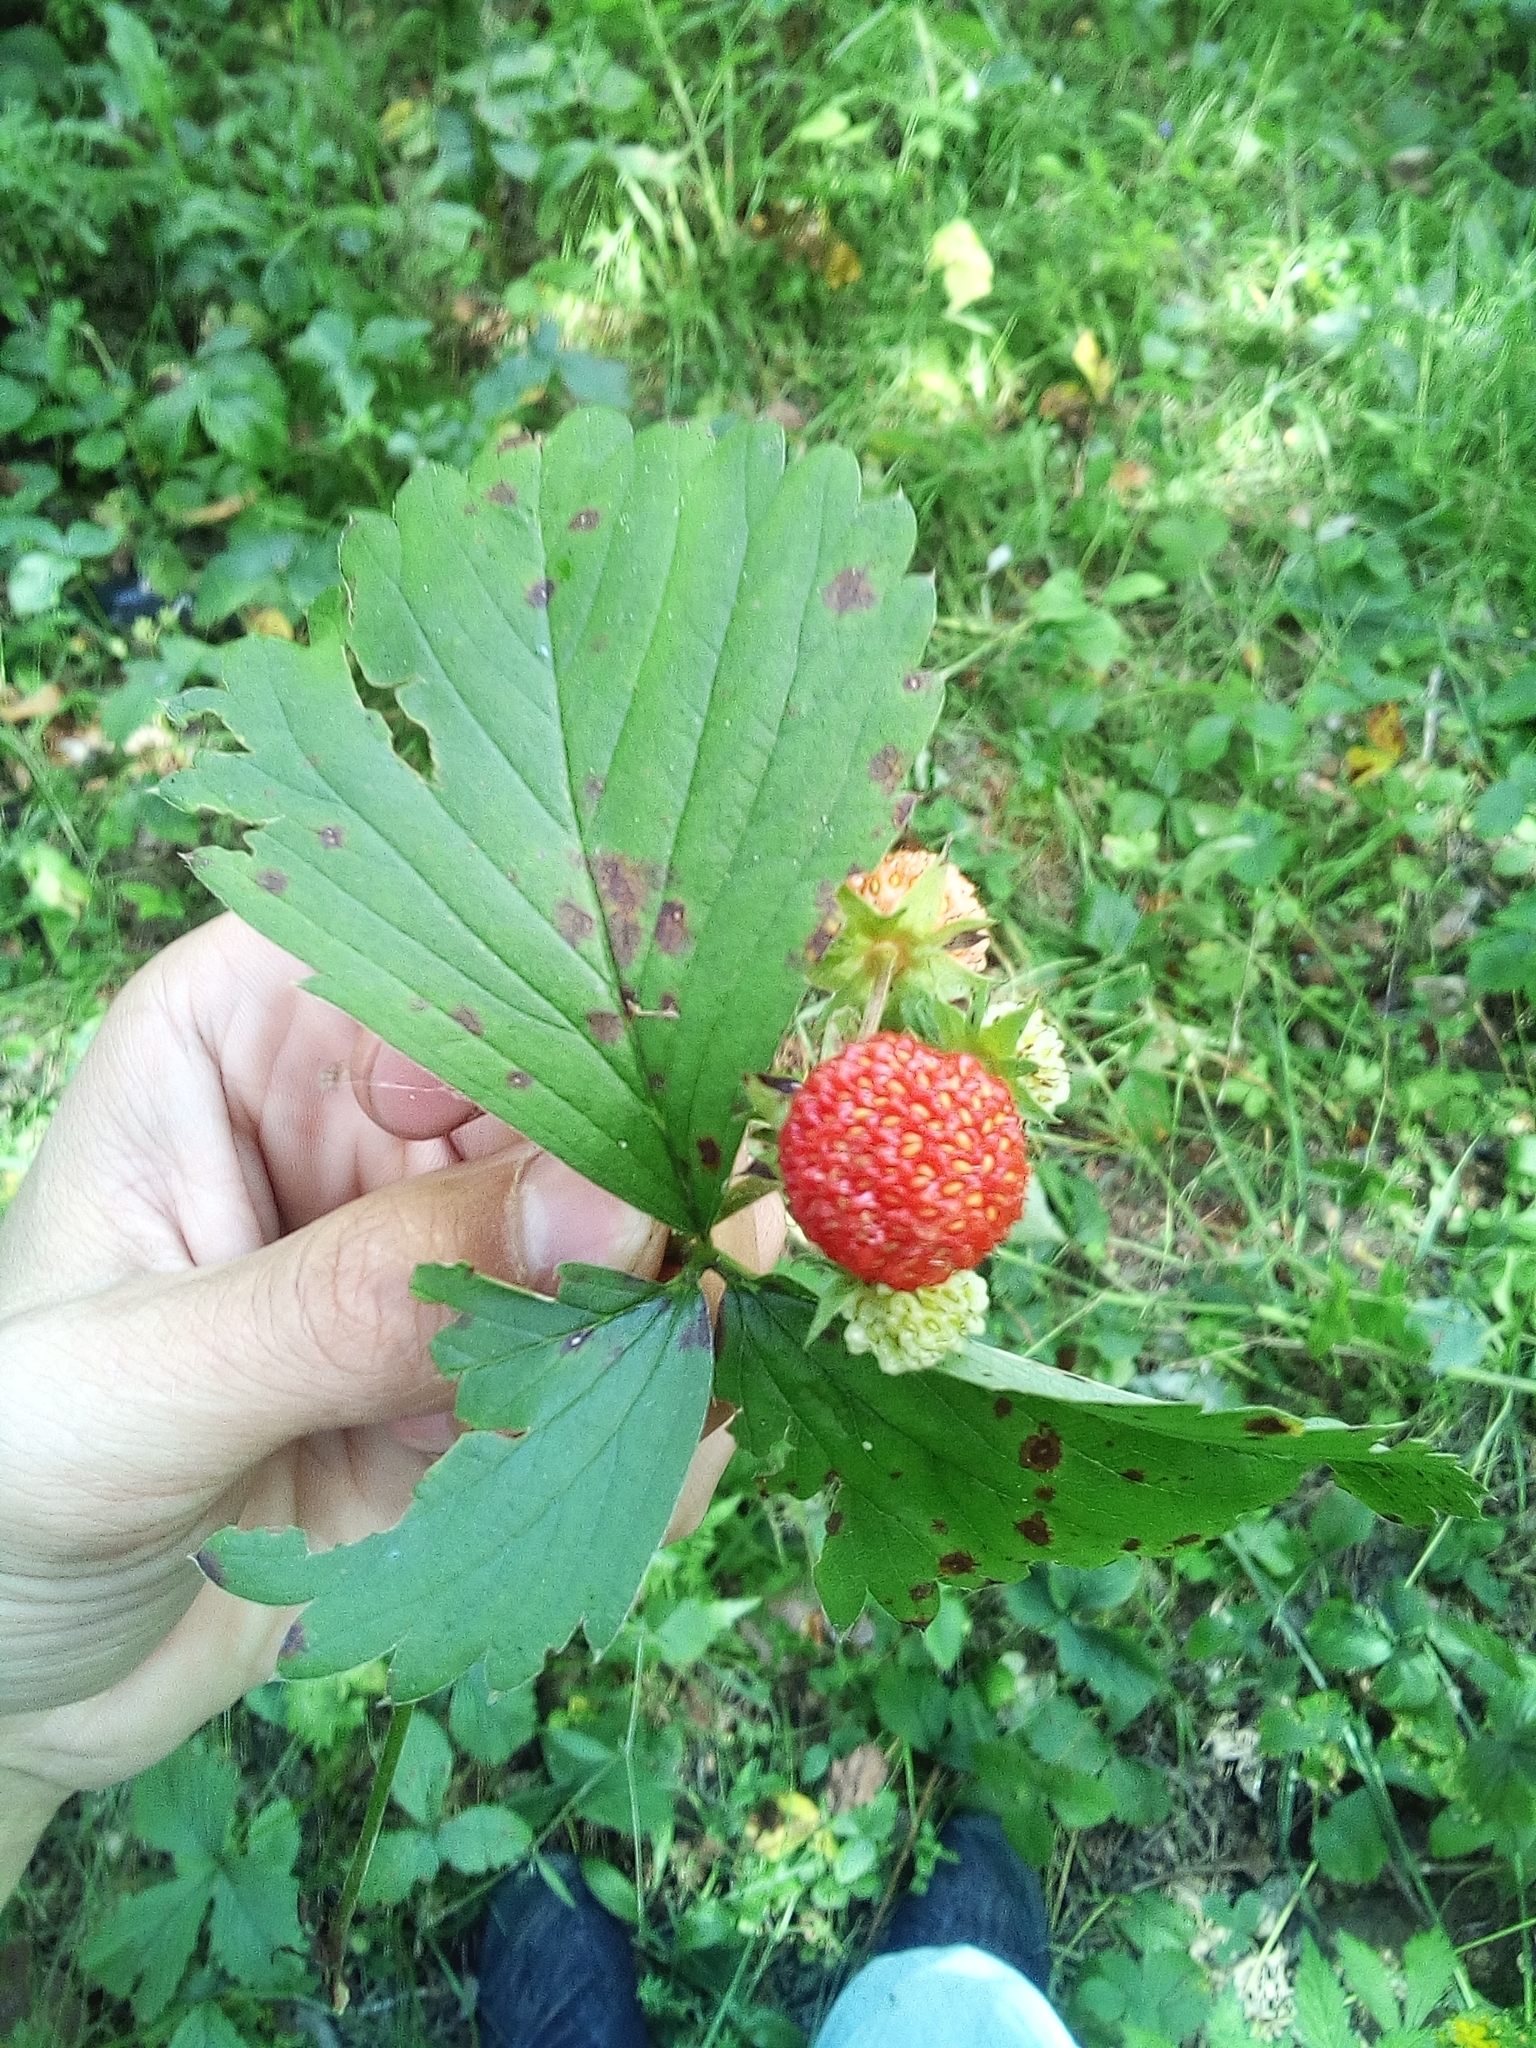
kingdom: Plantae
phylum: Tracheophyta
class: Magnoliopsida
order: Rosales
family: Rosaceae
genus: Fragaria
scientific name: Fragaria ananassa
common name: Garden strawberry
